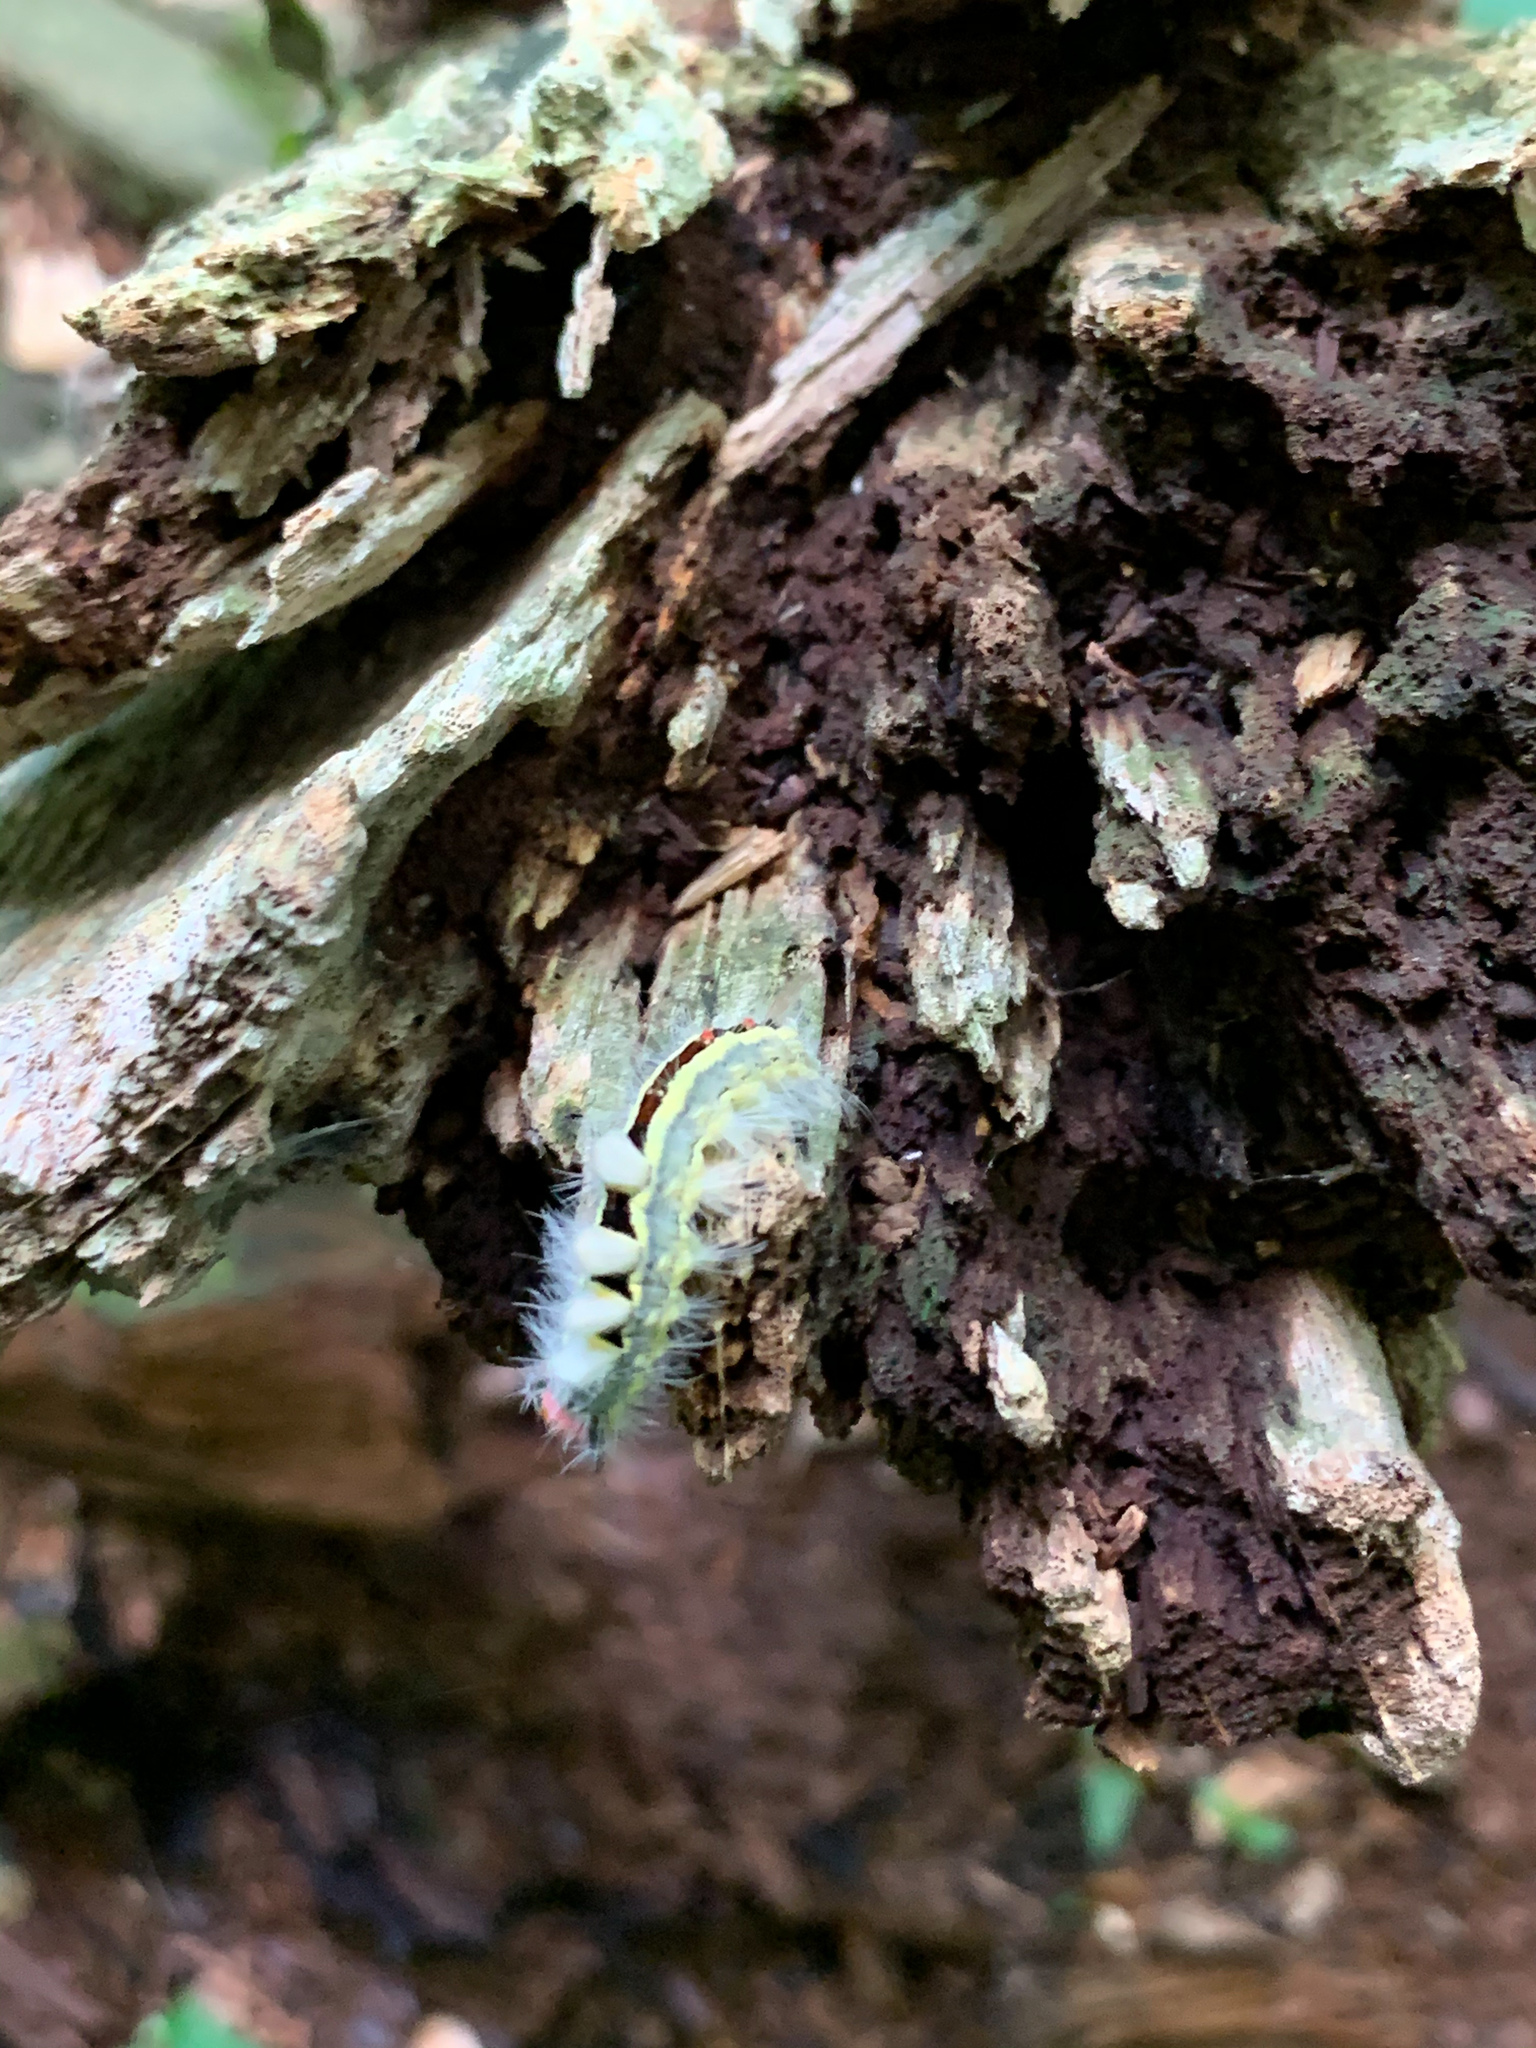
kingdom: Animalia
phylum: Arthropoda
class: Insecta
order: Lepidoptera
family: Erebidae
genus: Orgyia
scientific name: Orgyia leucostigma
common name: White-marked tussock moth
